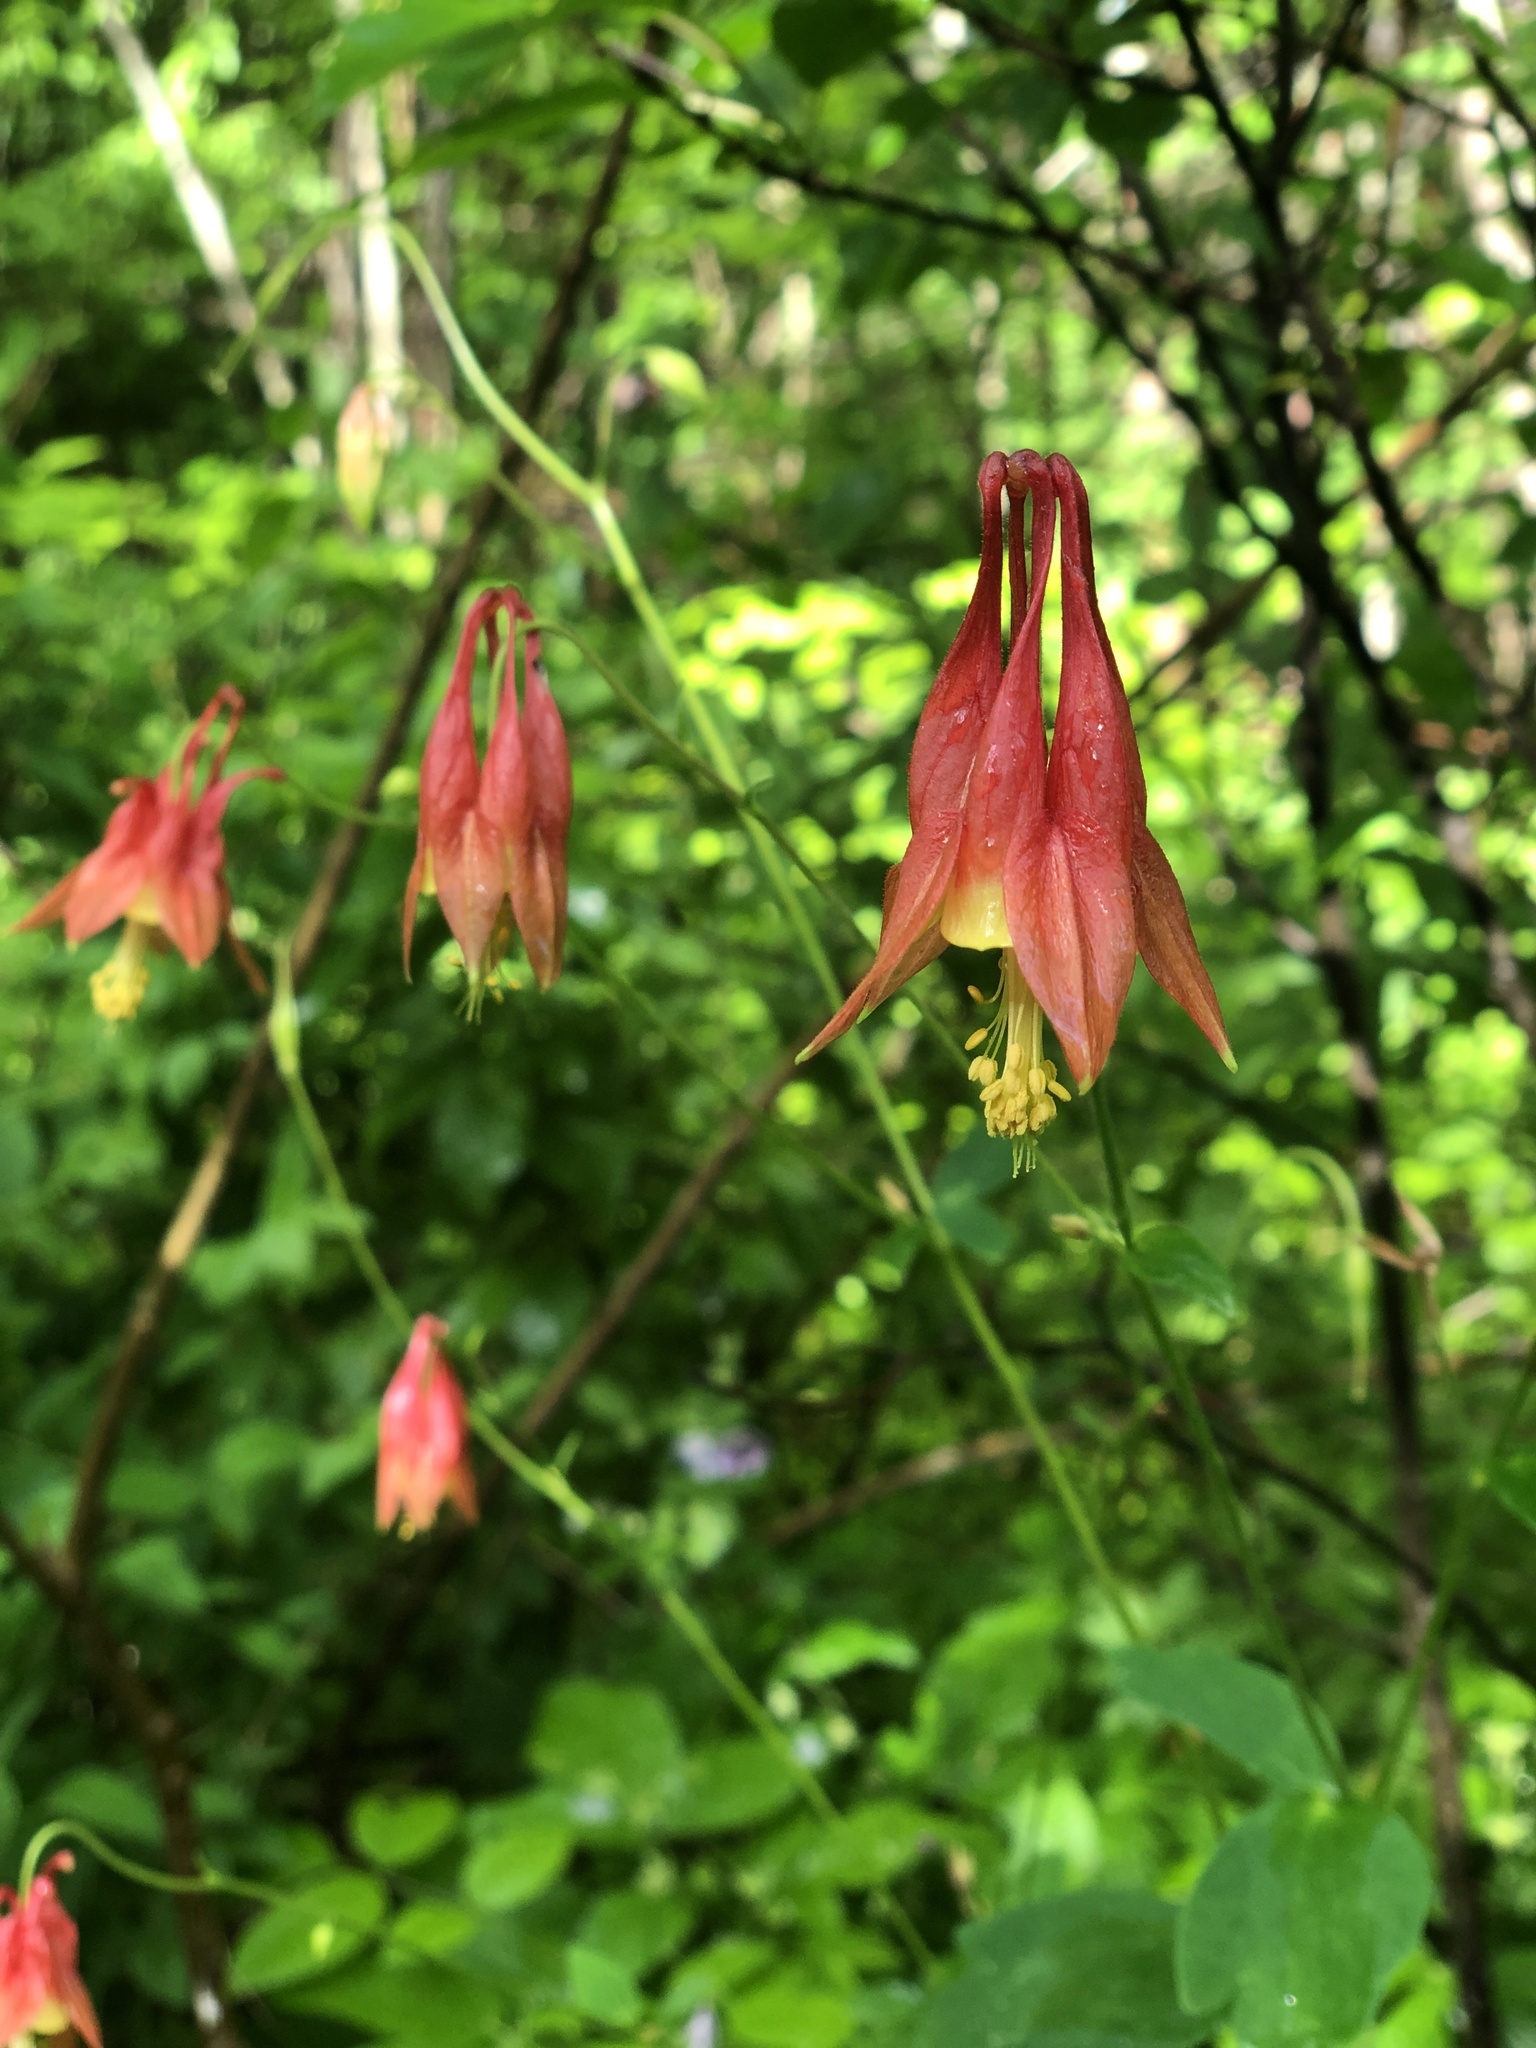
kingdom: Plantae
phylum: Tracheophyta
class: Magnoliopsida
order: Ranunculales
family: Ranunculaceae
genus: Aquilegia
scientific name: Aquilegia canadensis
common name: American columbine
